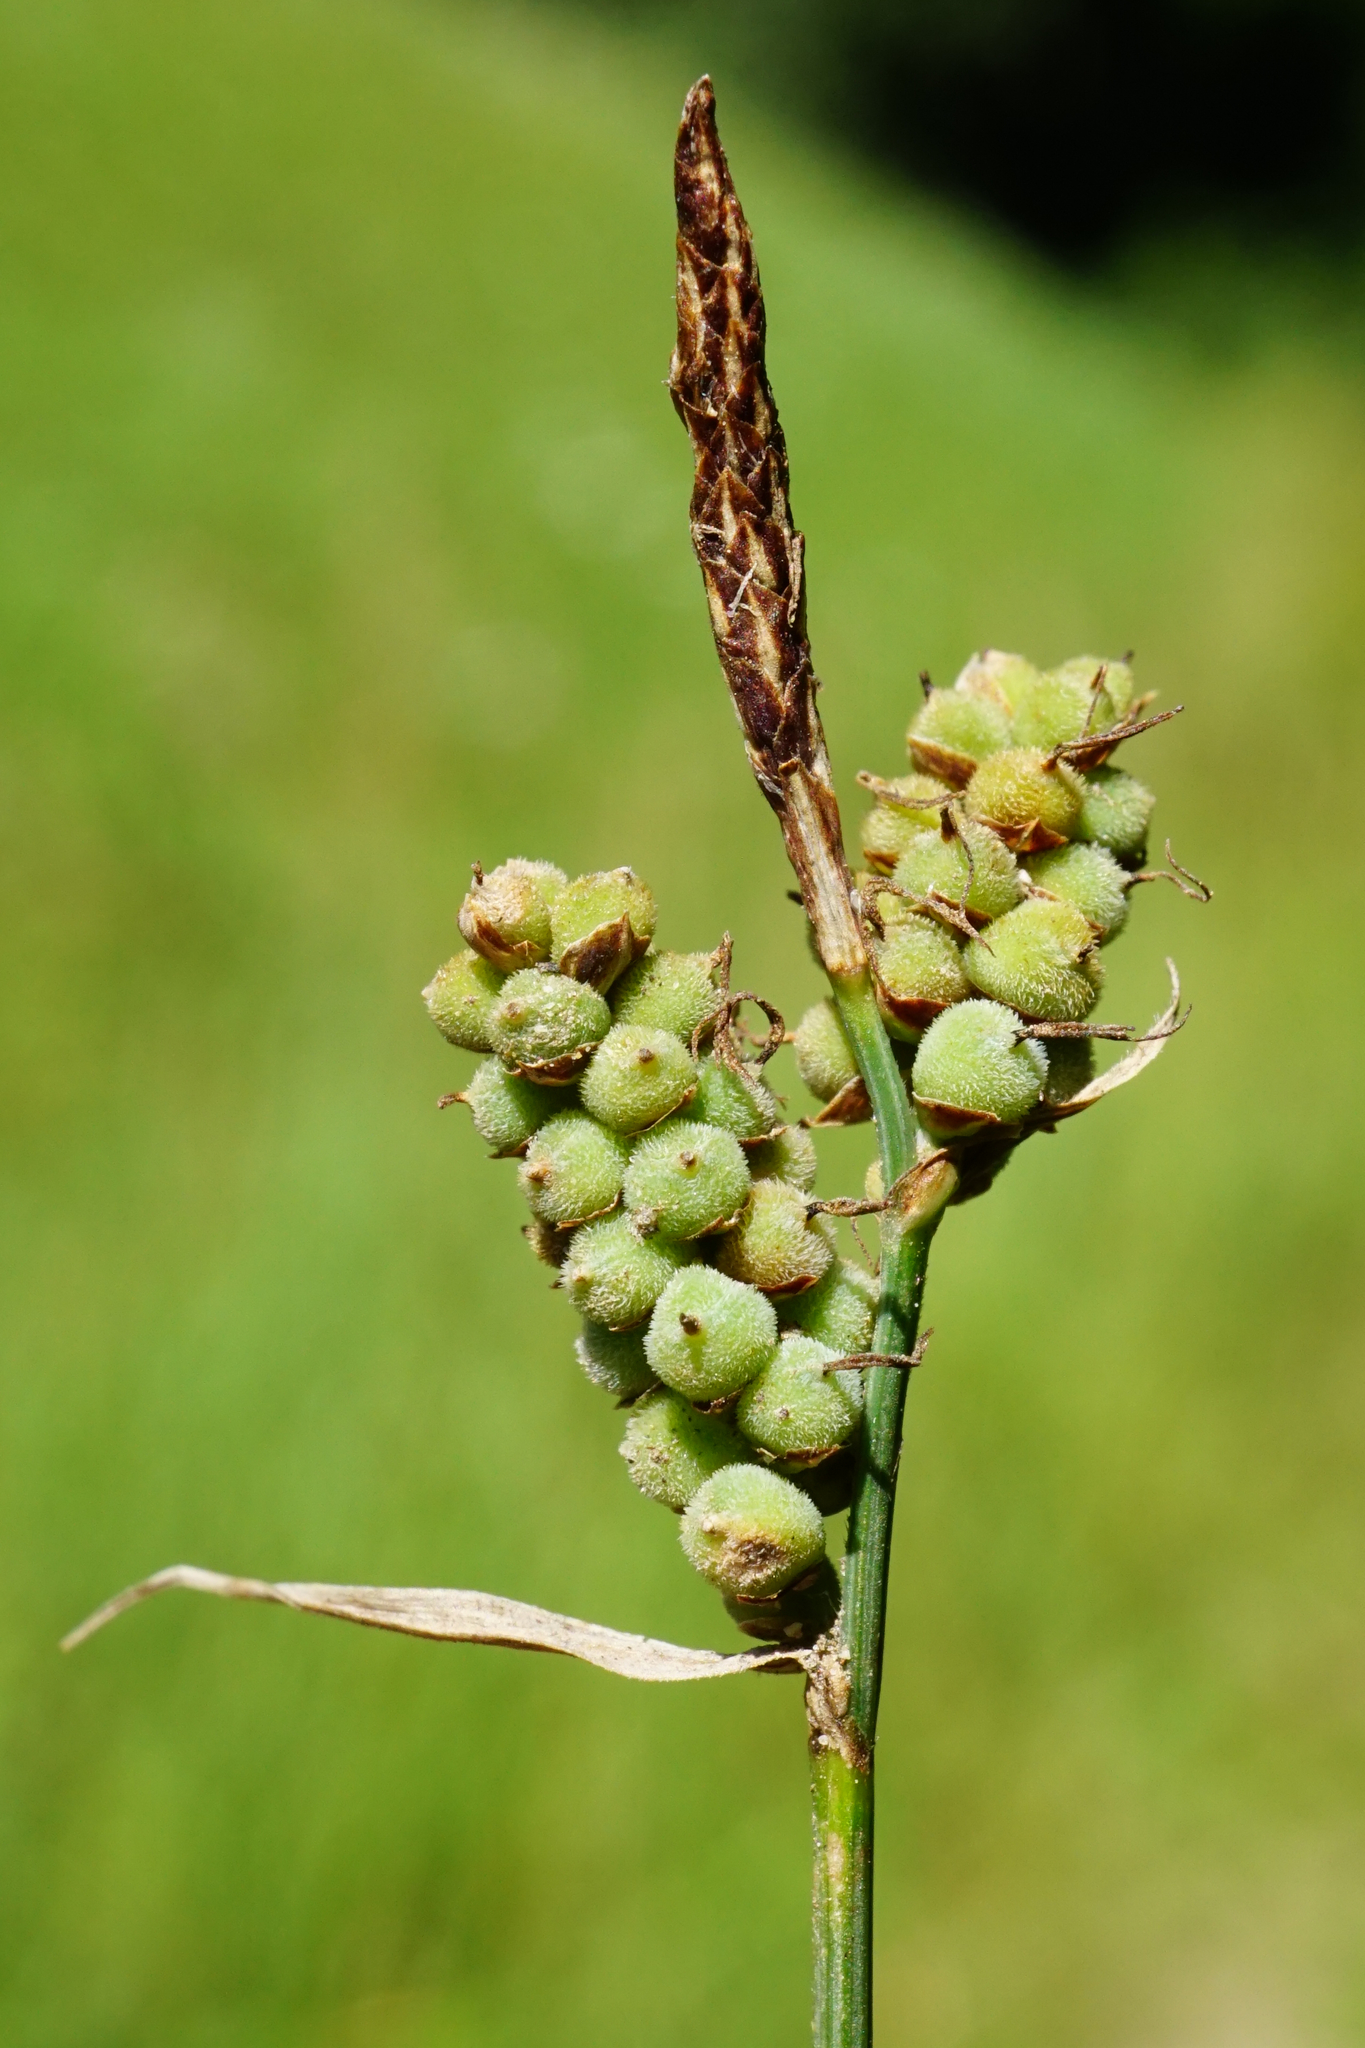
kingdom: Plantae
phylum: Tracheophyta
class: Liliopsida
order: Poales
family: Cyperaceae
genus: Carex
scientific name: Carex tomentosa
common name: Downy-fruited sedge
